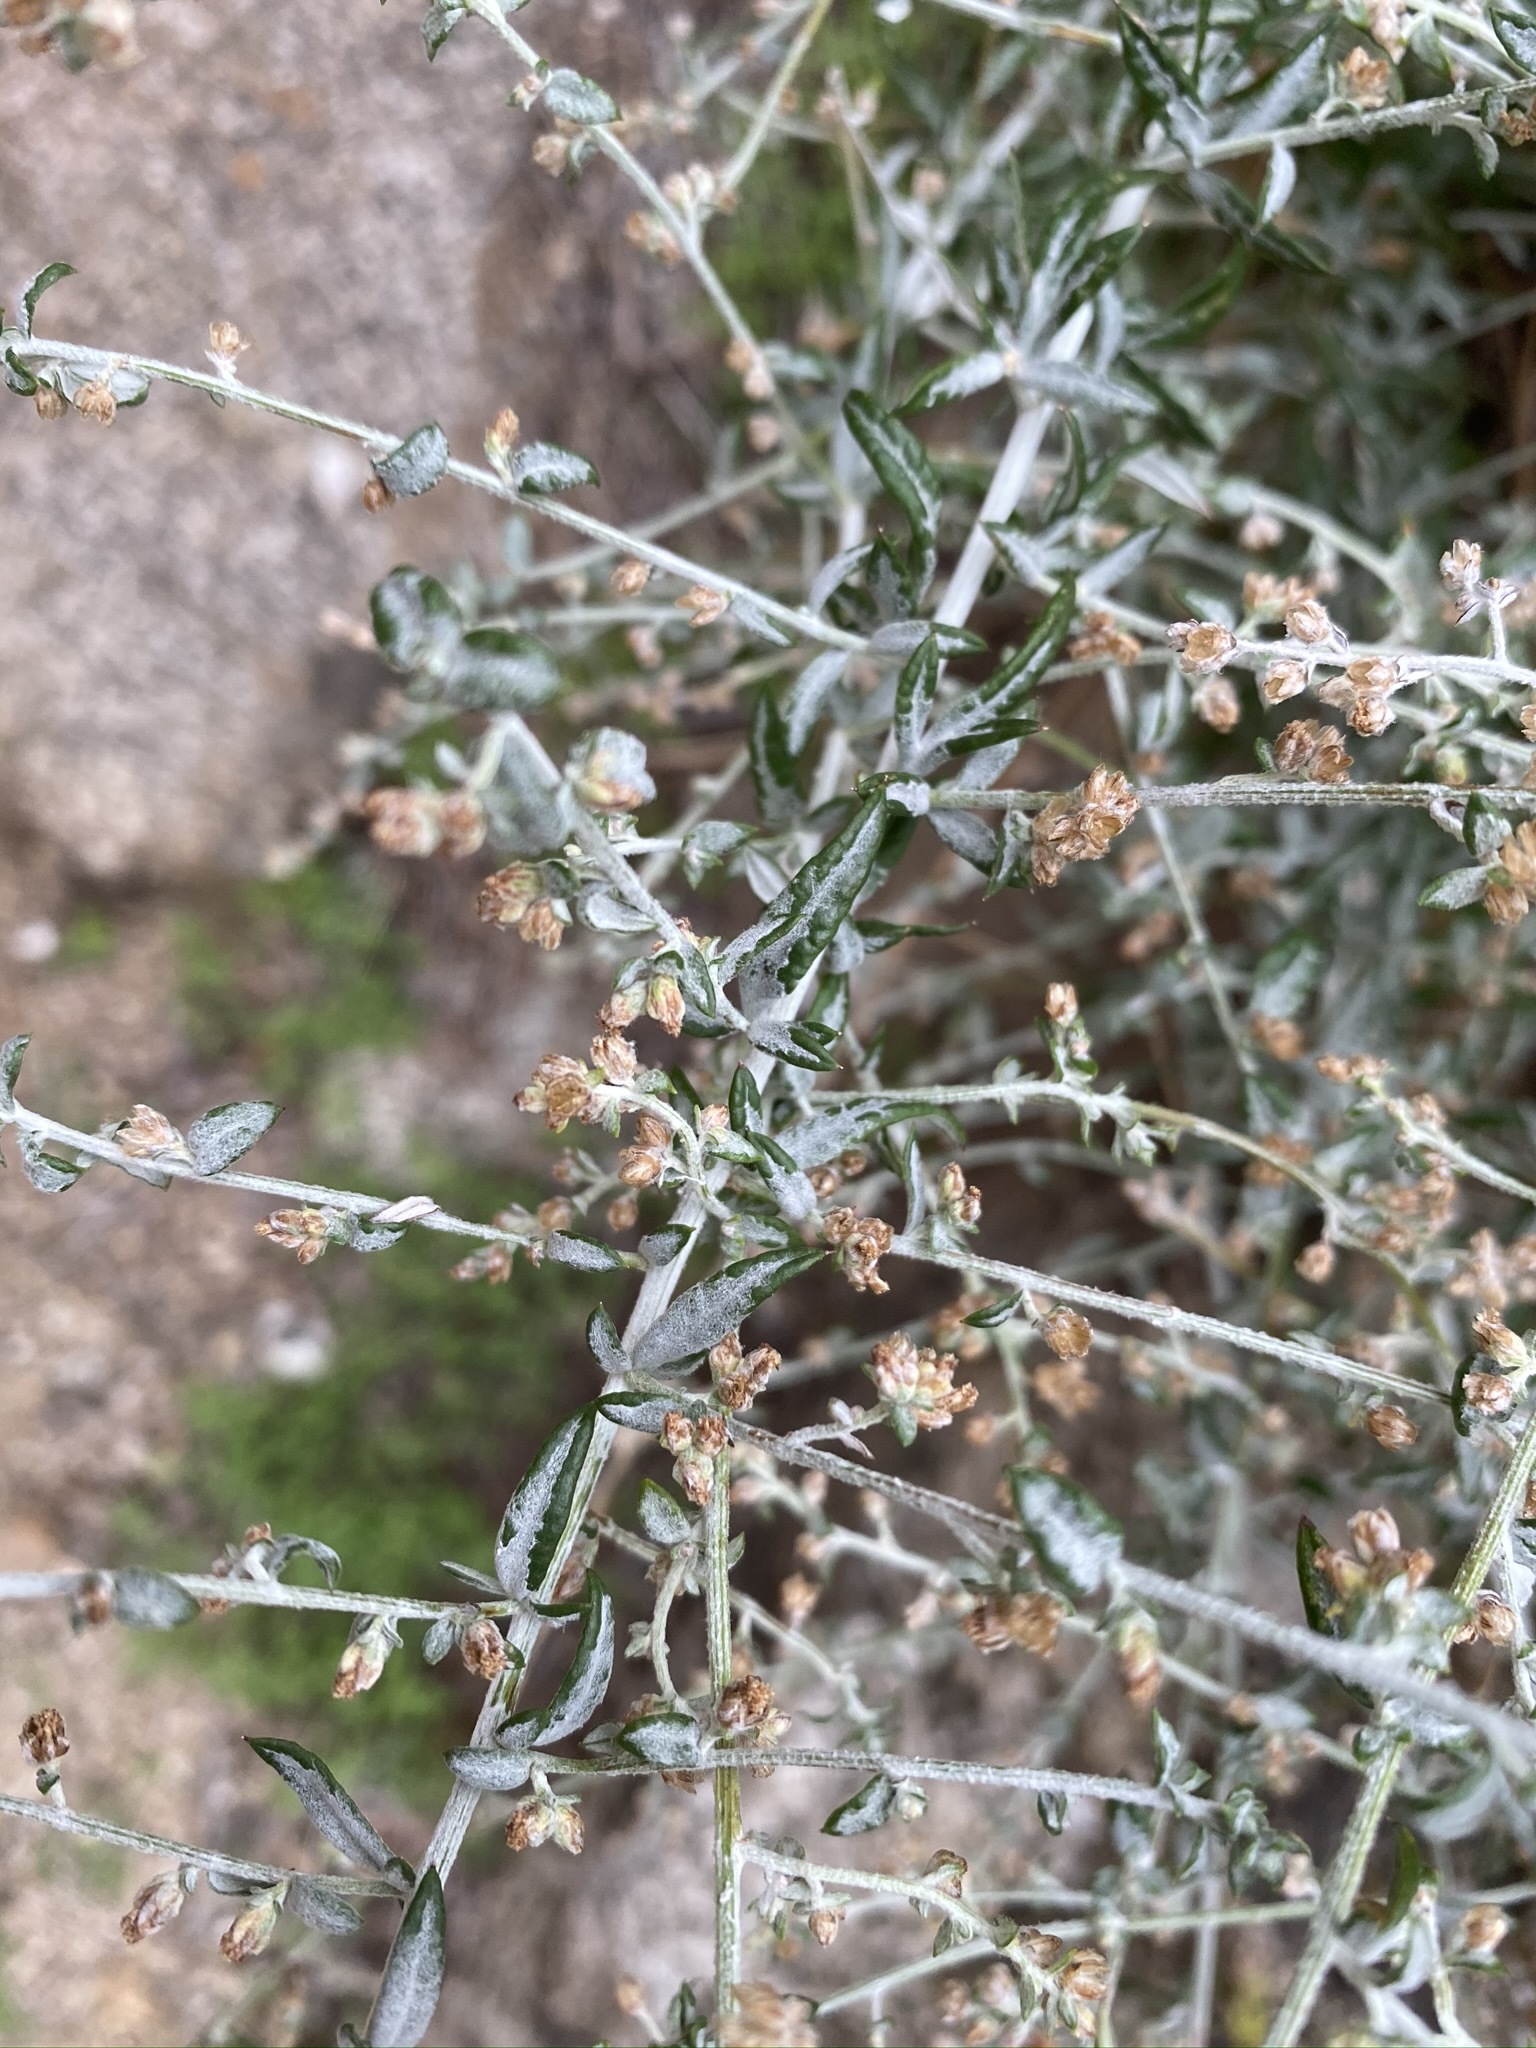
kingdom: Plantae
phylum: Tracheophyta
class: Magnoliopsida
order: Asterales
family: Asteraceae
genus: Artemisia
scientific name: Artemisia ludoviciana
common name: Western mugwort
